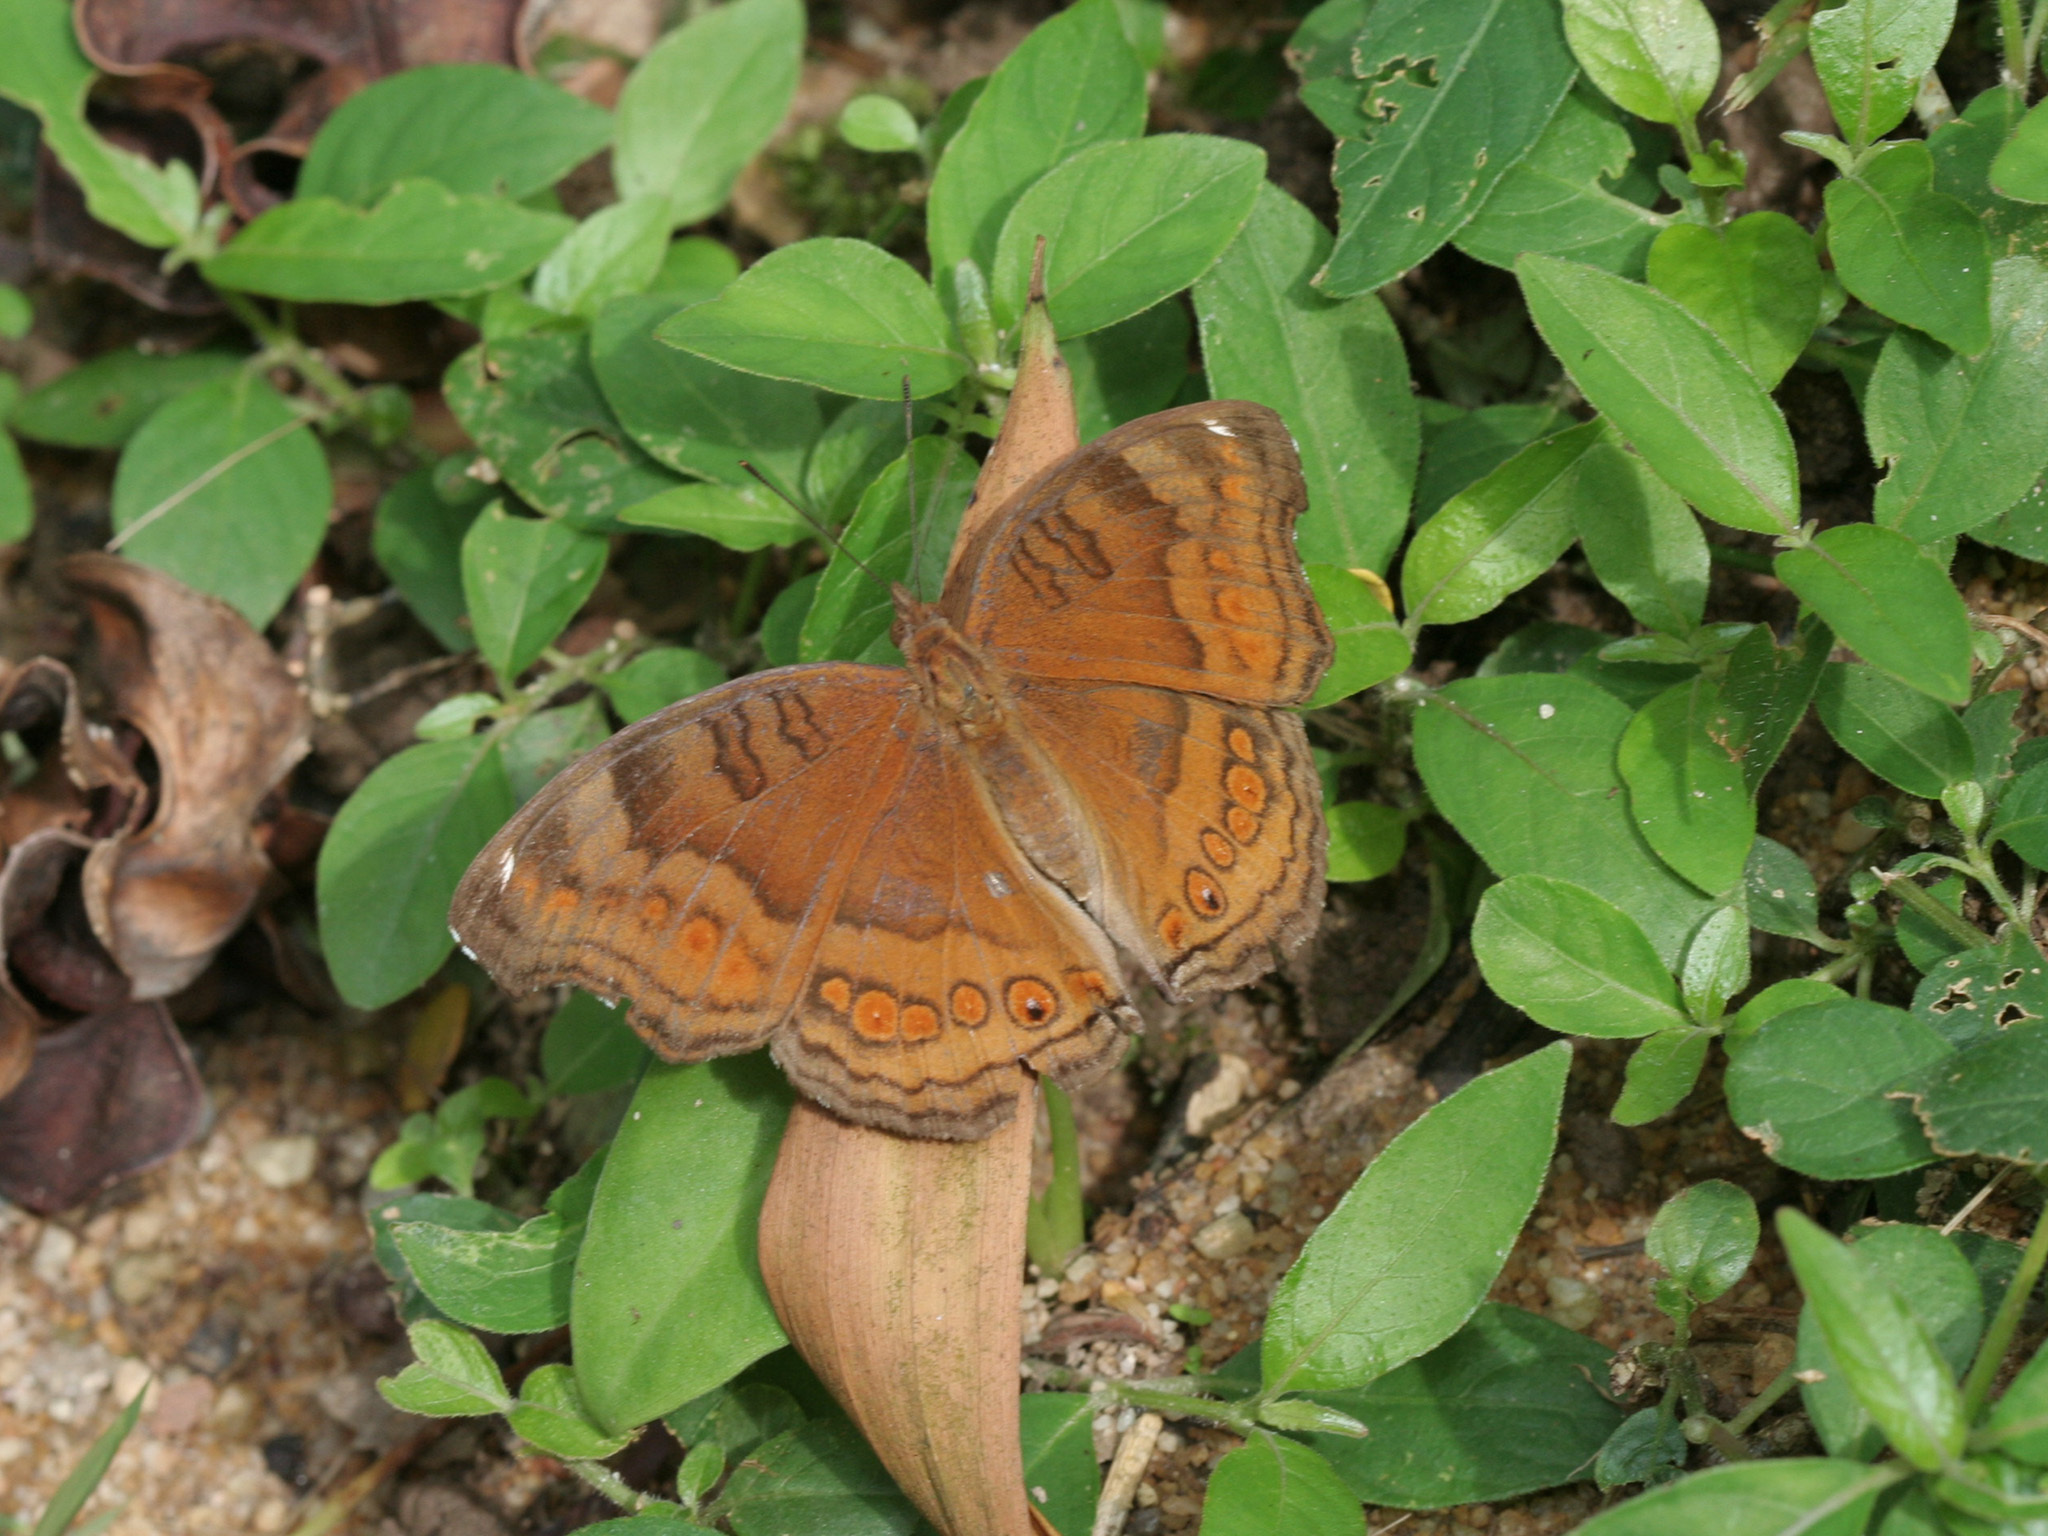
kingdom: Animalia
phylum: Arthropoda
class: Insecta
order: Lepidoptera
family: Nymphalidae
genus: Junonia
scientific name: Junonia hedonia
